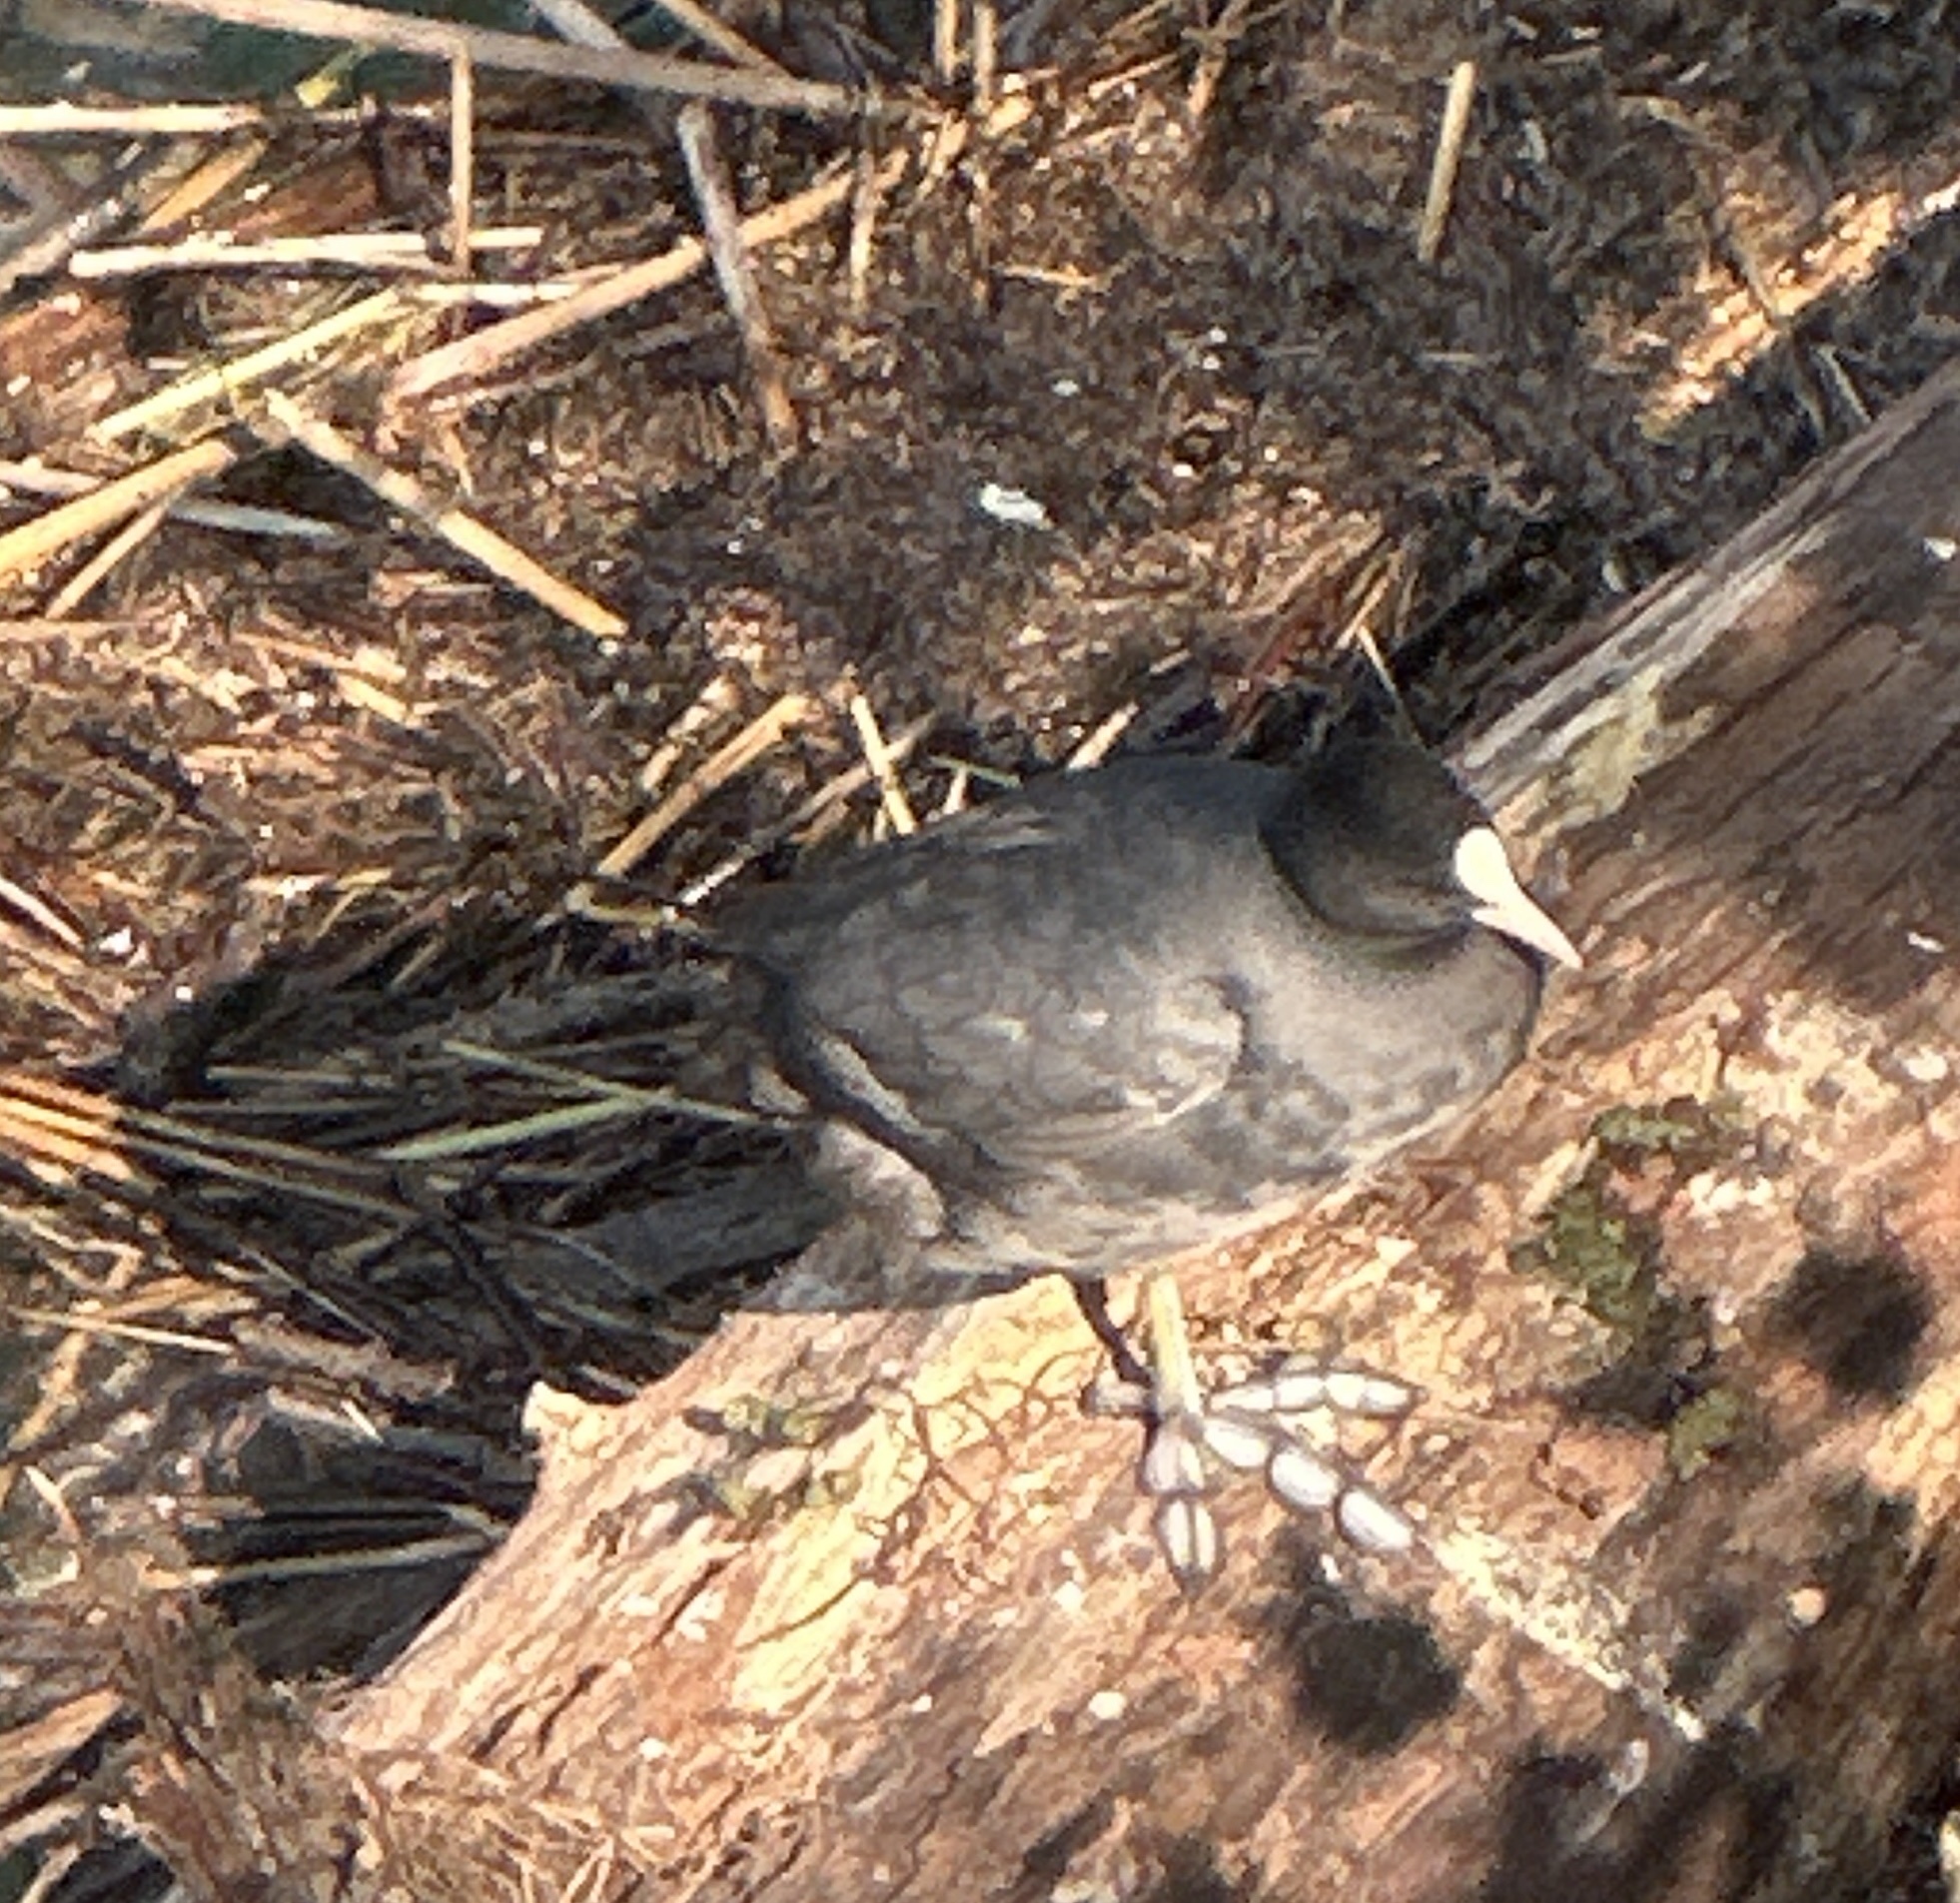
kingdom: Animalia
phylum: Chordata
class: Aves
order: Gruiformes
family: Rallidae
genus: Fulica
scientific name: Fulica atra
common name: Eurasian coot
